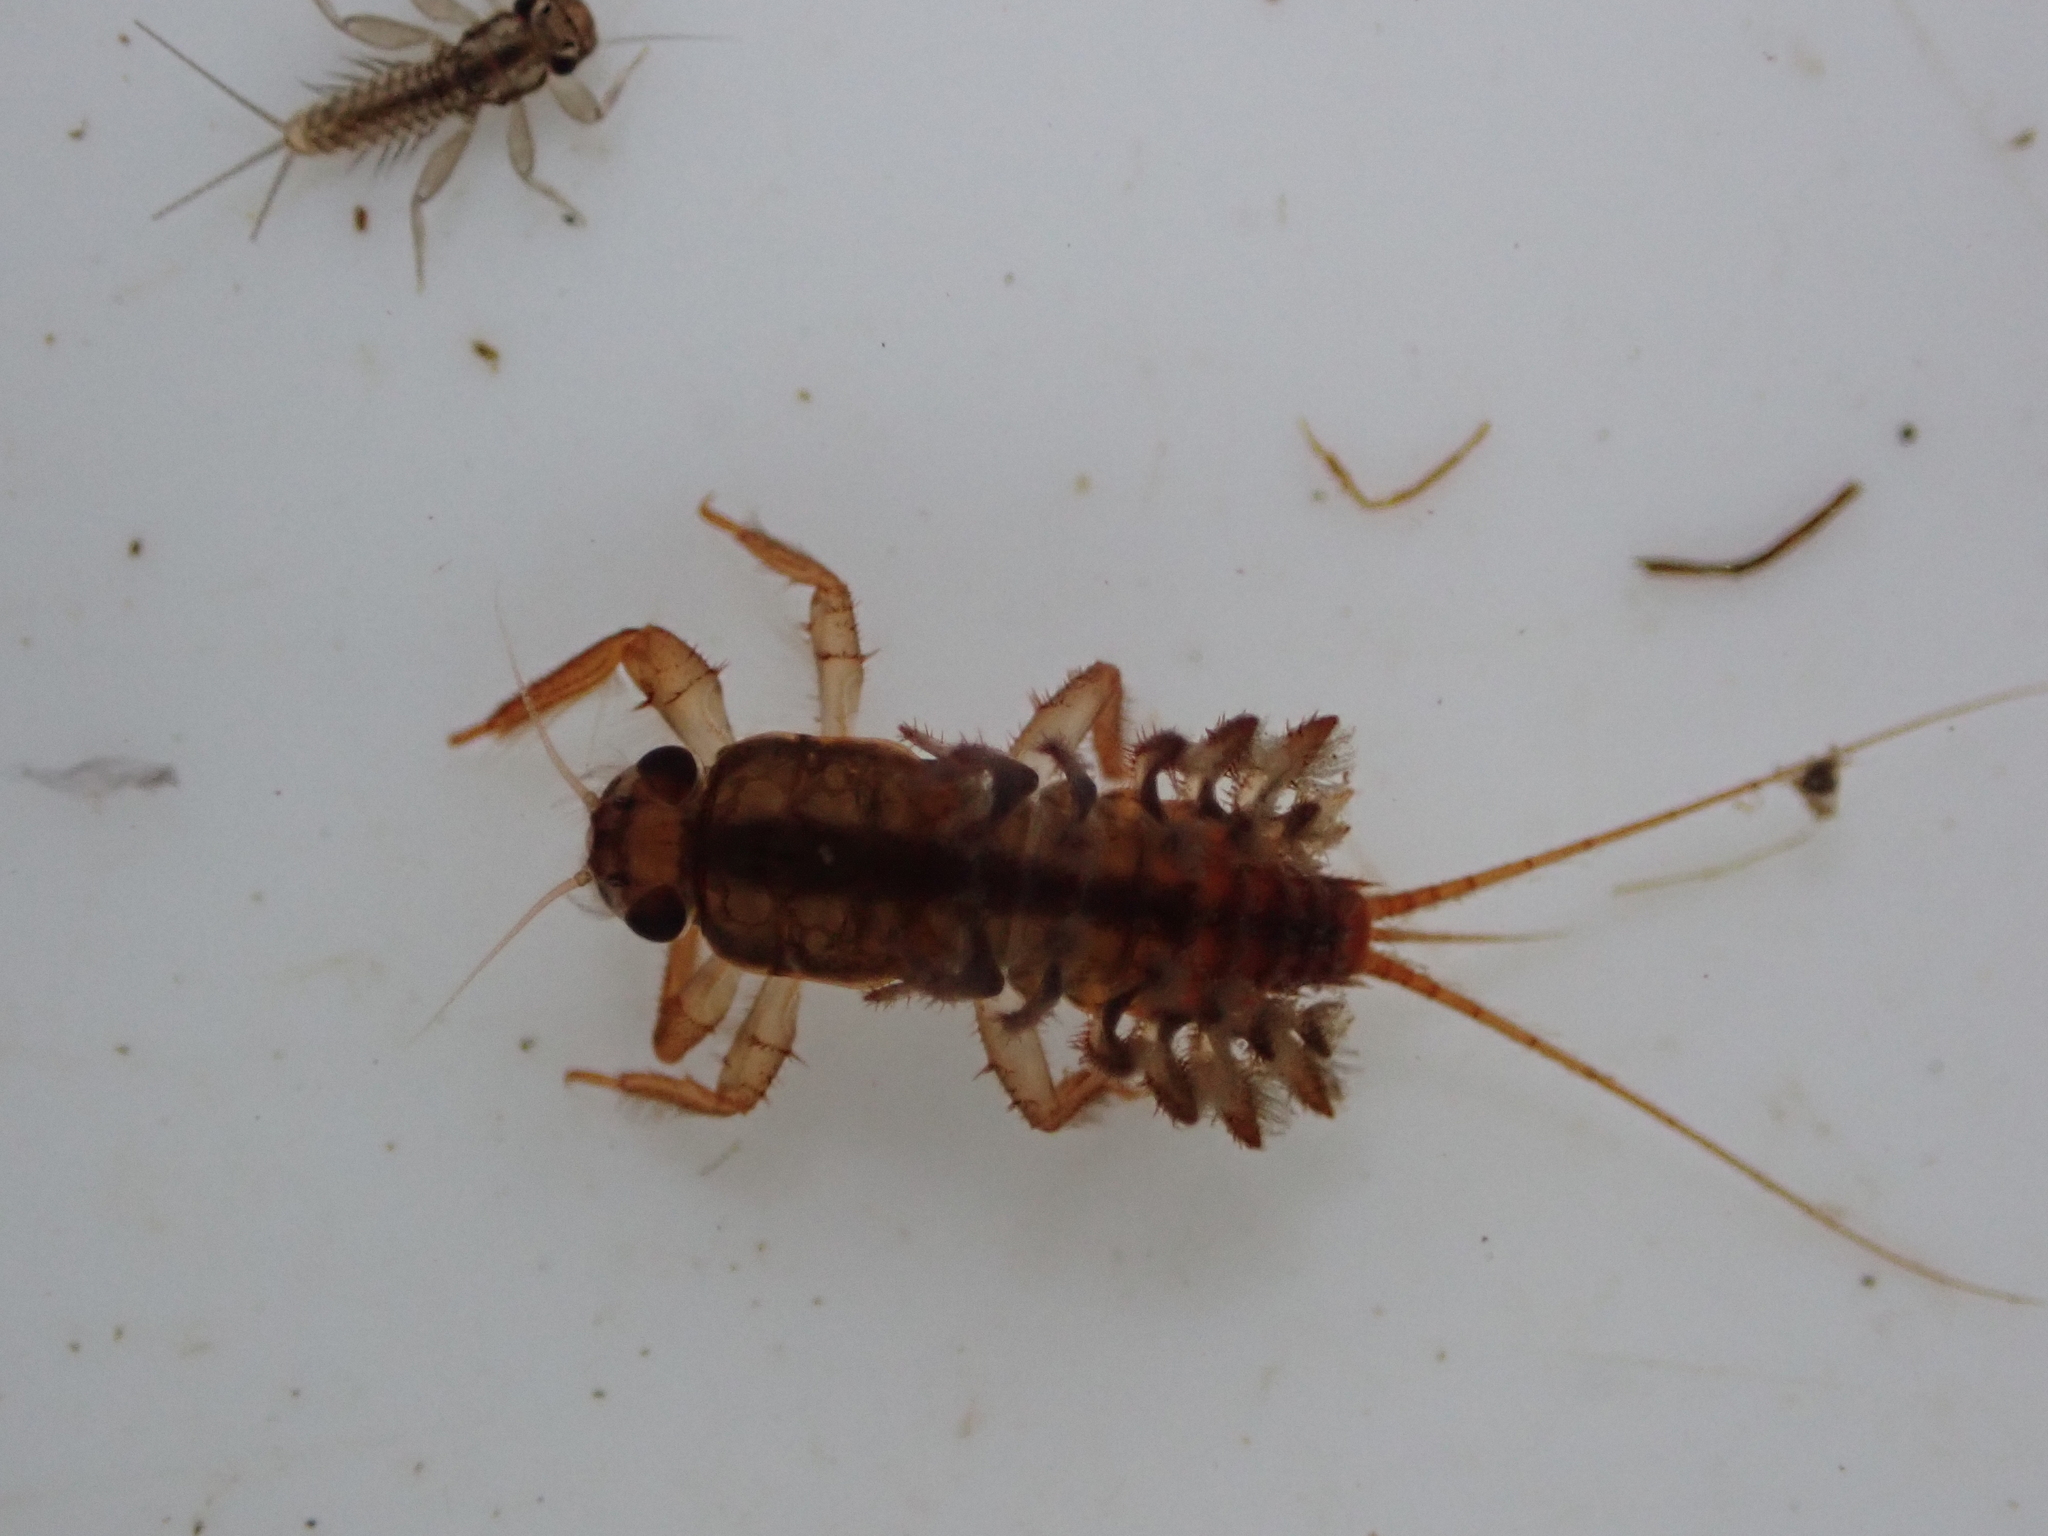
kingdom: Animalia
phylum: Arthropoda
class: Insecta
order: Ephemeroptera
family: Coloburiscidae
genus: Coloburiscus
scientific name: Coloburiscus humeralis
